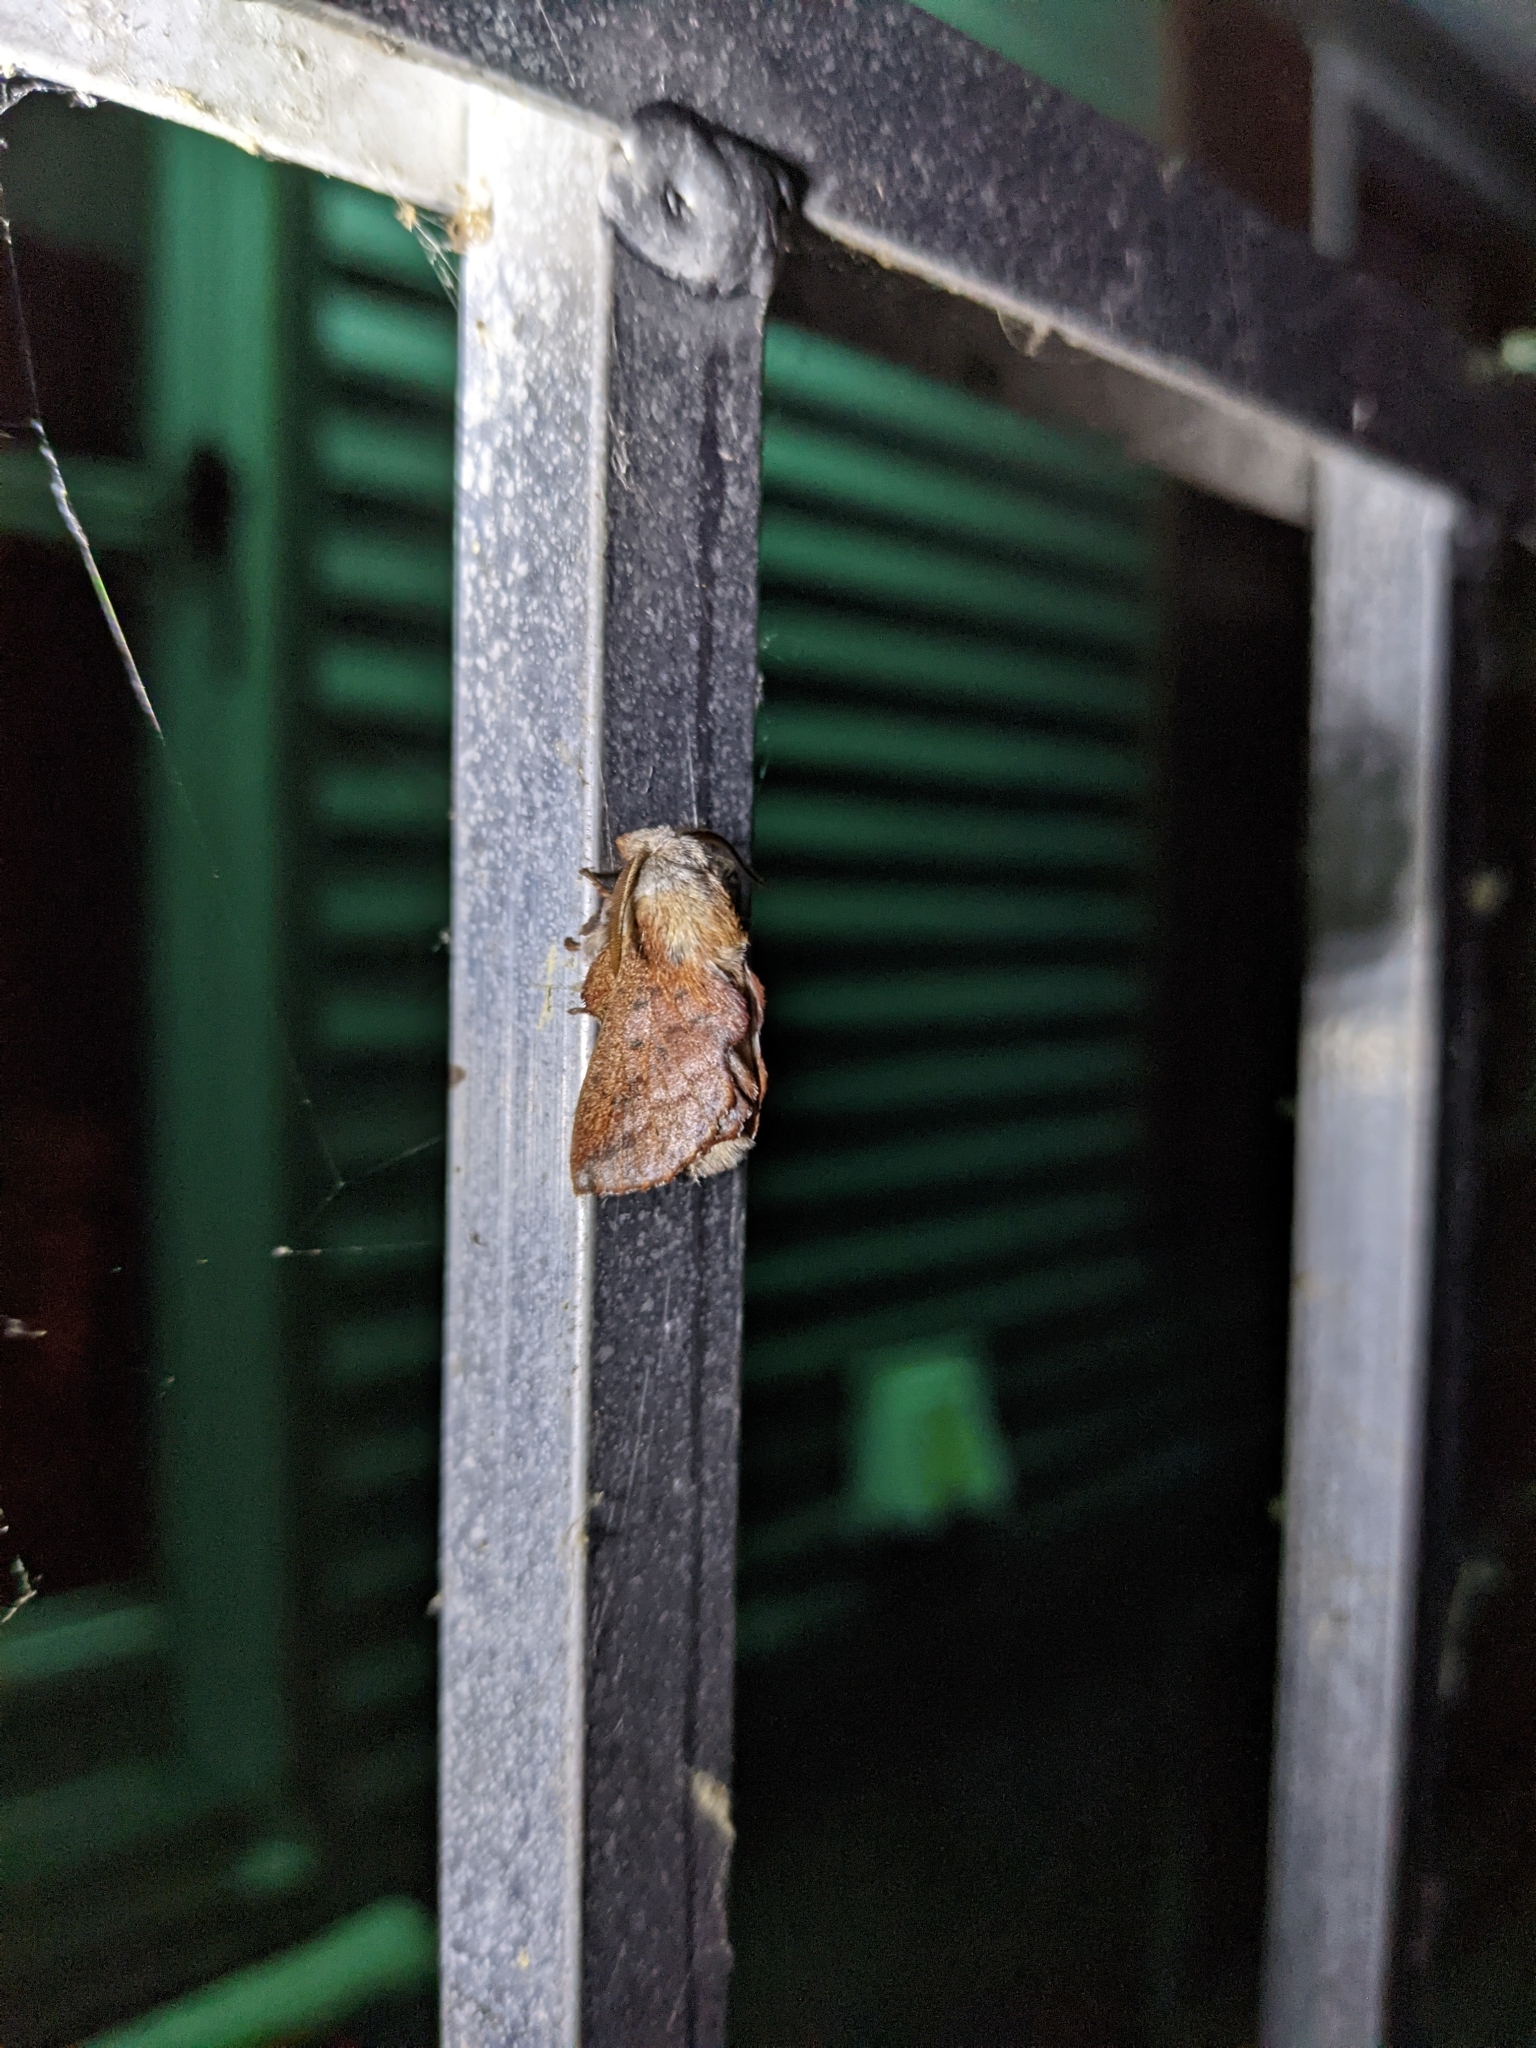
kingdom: Animalia
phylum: Arthropoda
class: Insecta
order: Lepidoptera
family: Lasiocampidae
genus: Phyllodesma
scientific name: Phyllodesma americana
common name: American lappet moth
